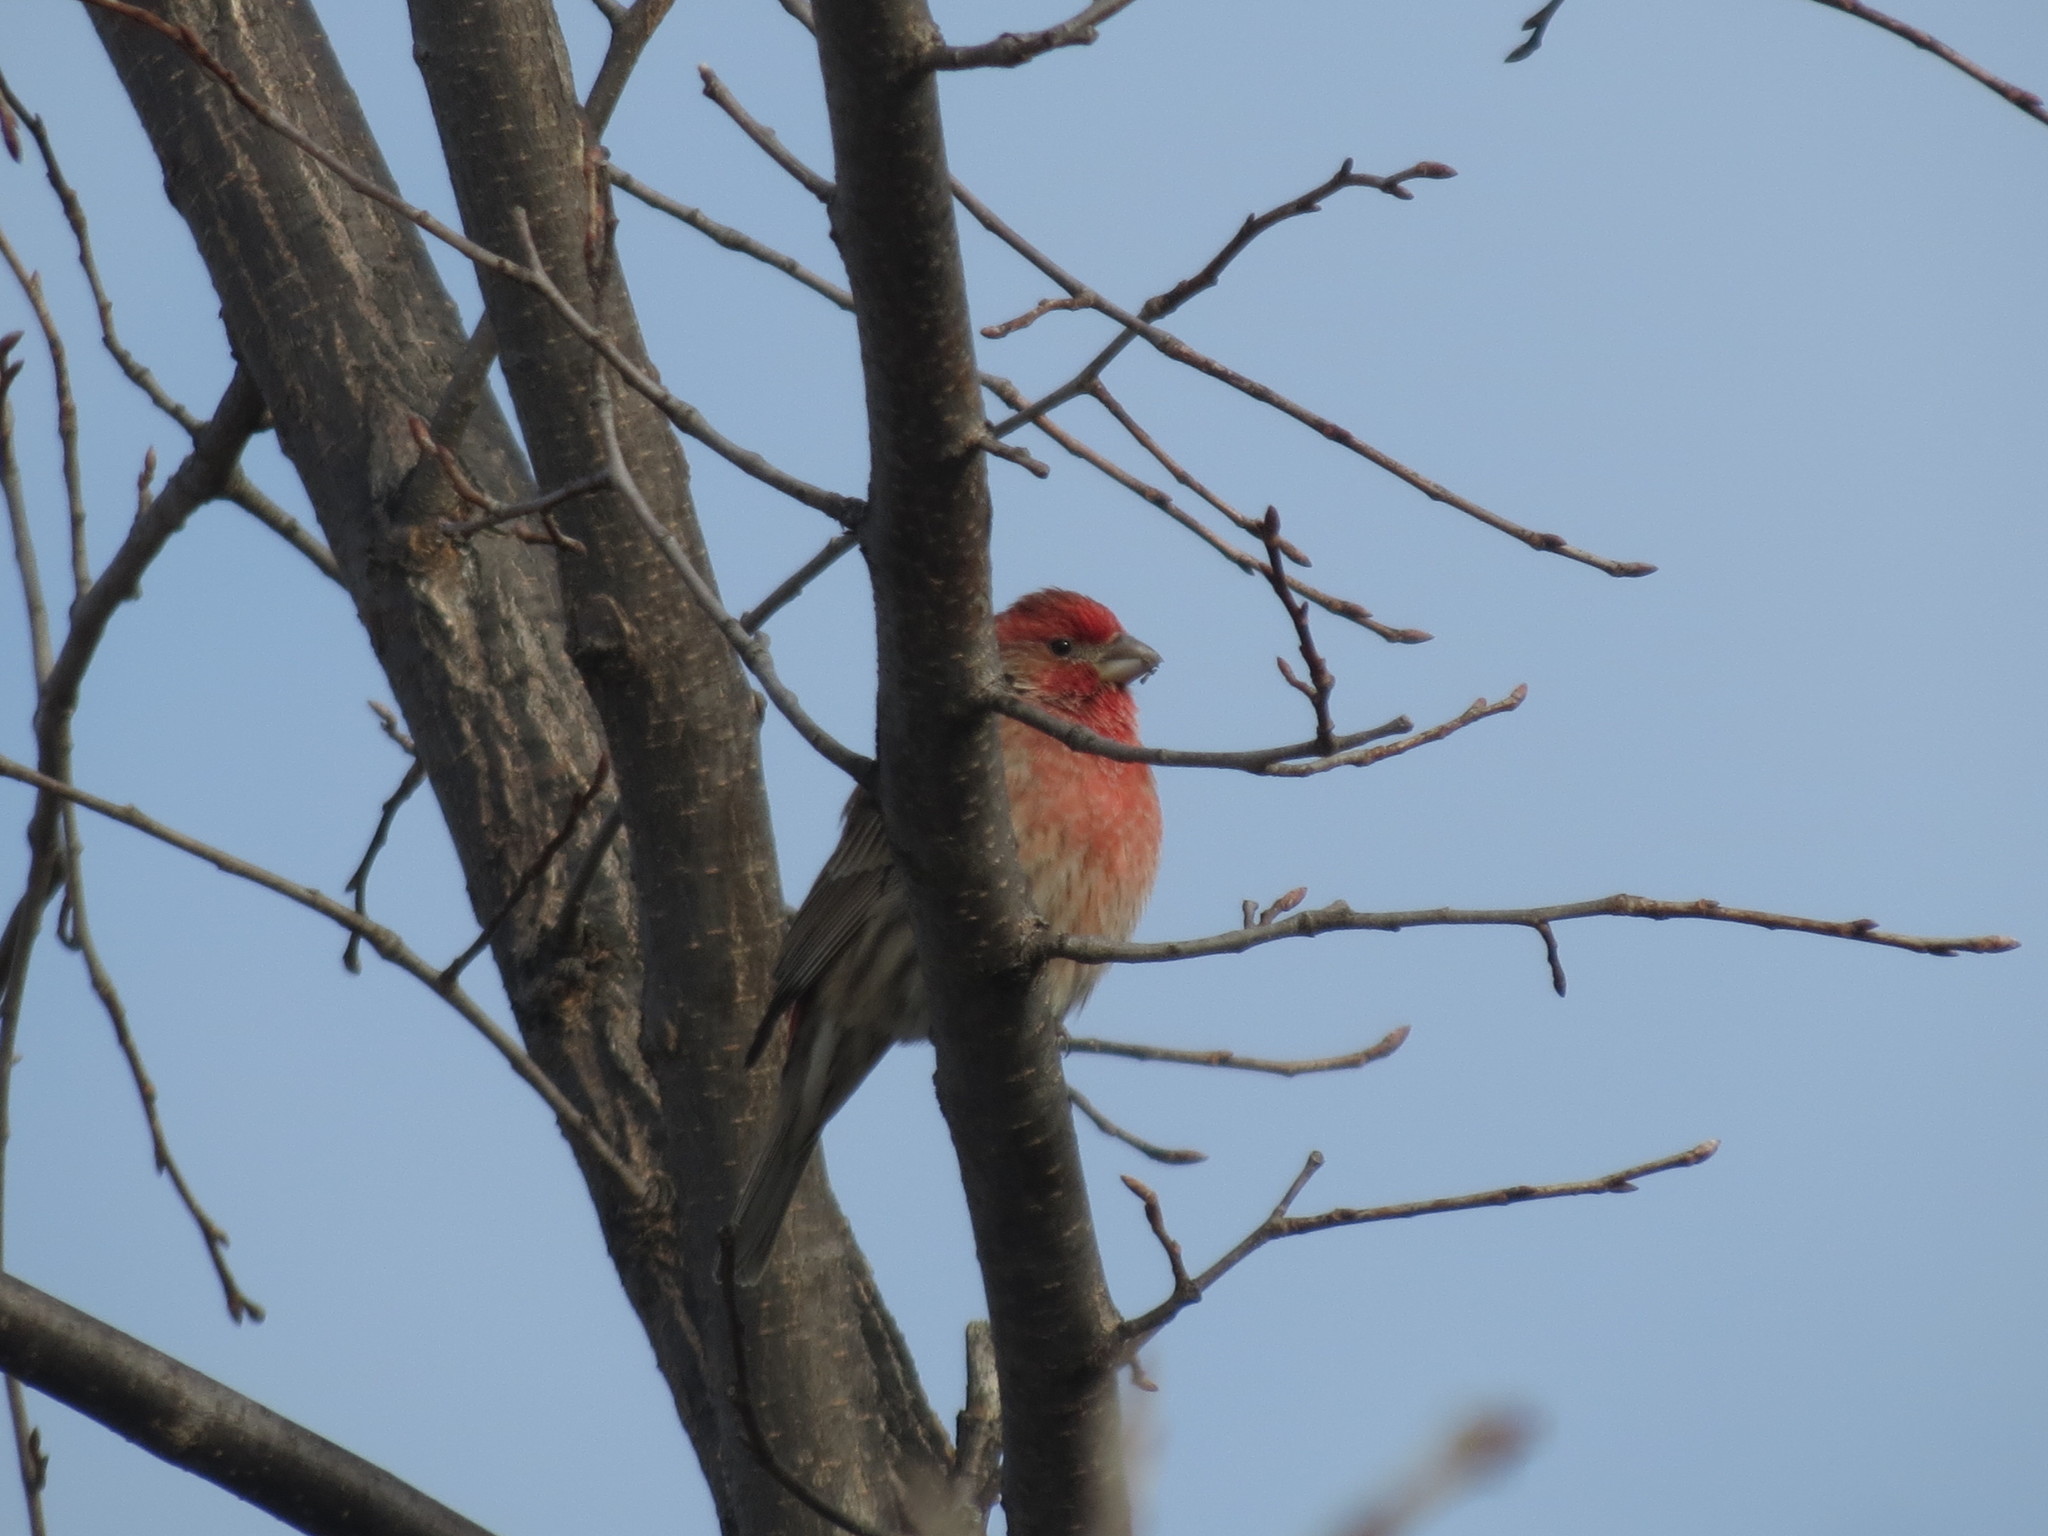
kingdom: Animalia
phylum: Chordata
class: Aves
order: Passeriformes
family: Fringillidae
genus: Haemorhous
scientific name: Haemorhous mexicanus
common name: House finch
